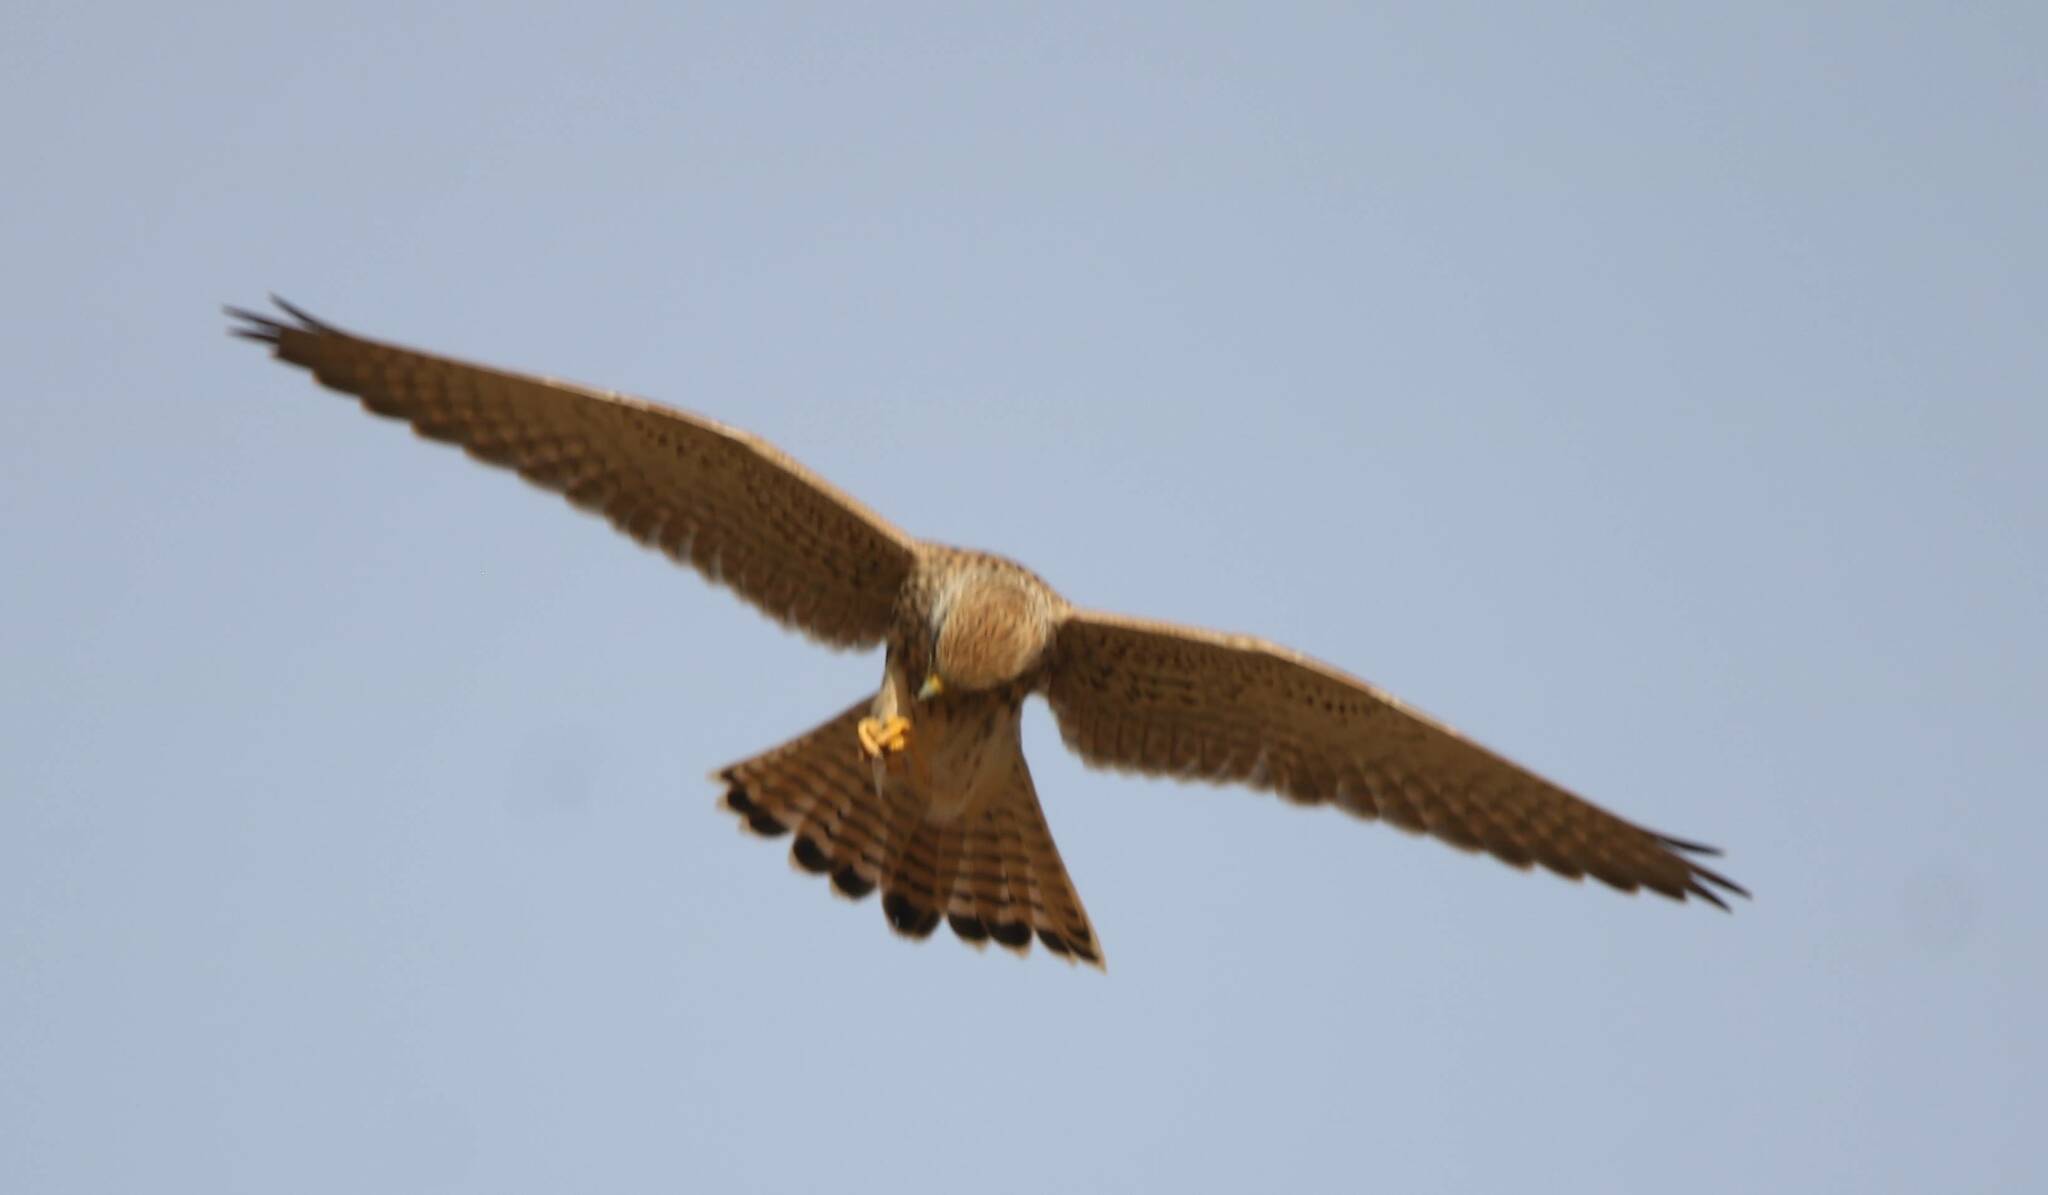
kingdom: Animalia
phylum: Chordata
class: Aves
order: Falconiformes
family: Falconidae
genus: Falco
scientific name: Falco tinnunculus
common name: Common kestrel
